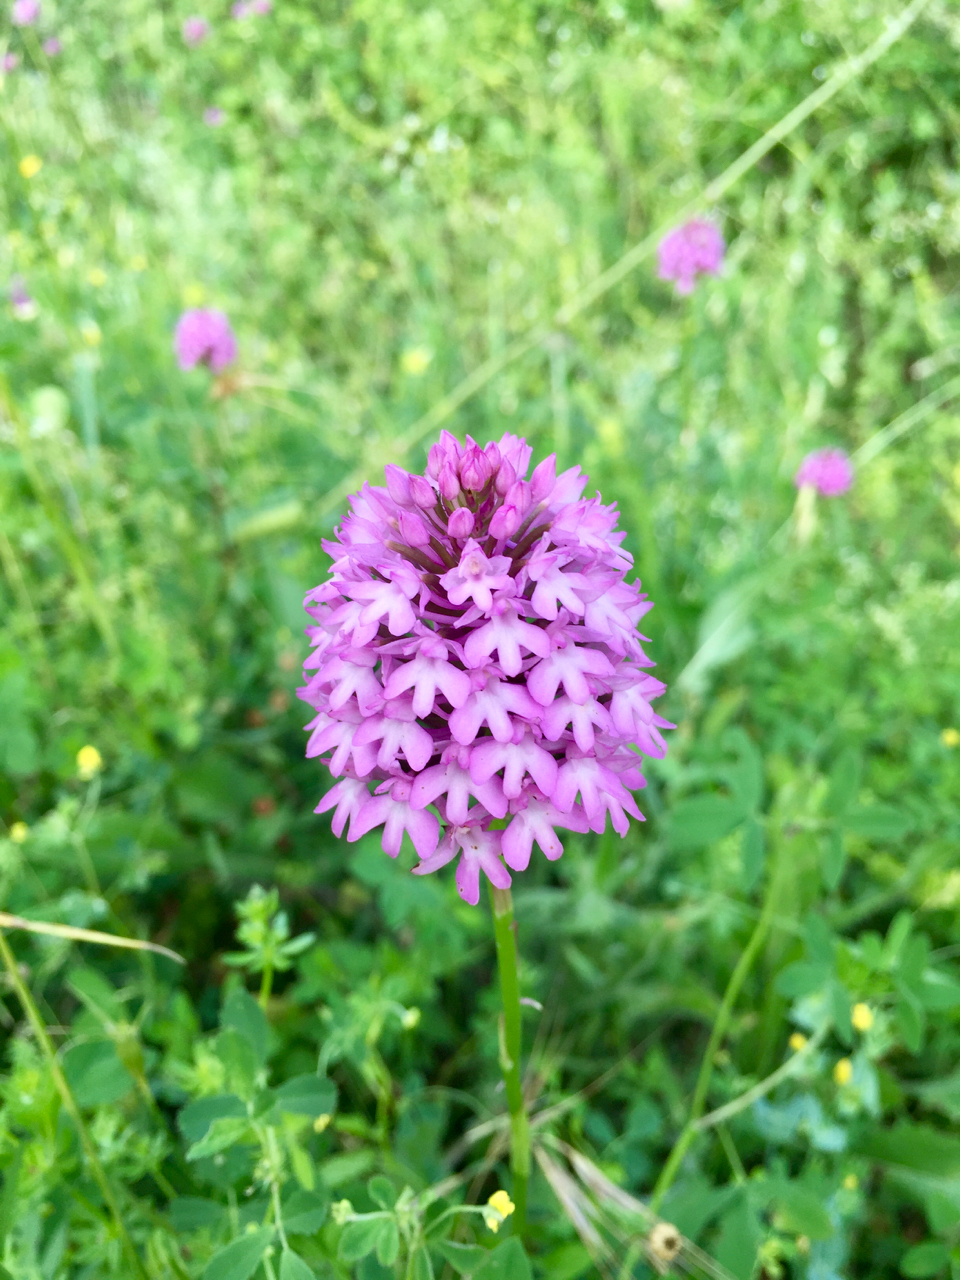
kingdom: Plantae
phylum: Tracheophyta
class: Liliopsida
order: Asparagales
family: Orchidaceae
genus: Anacamptis
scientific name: Anacamptis pyramidalis
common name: Pyramidal orchid
